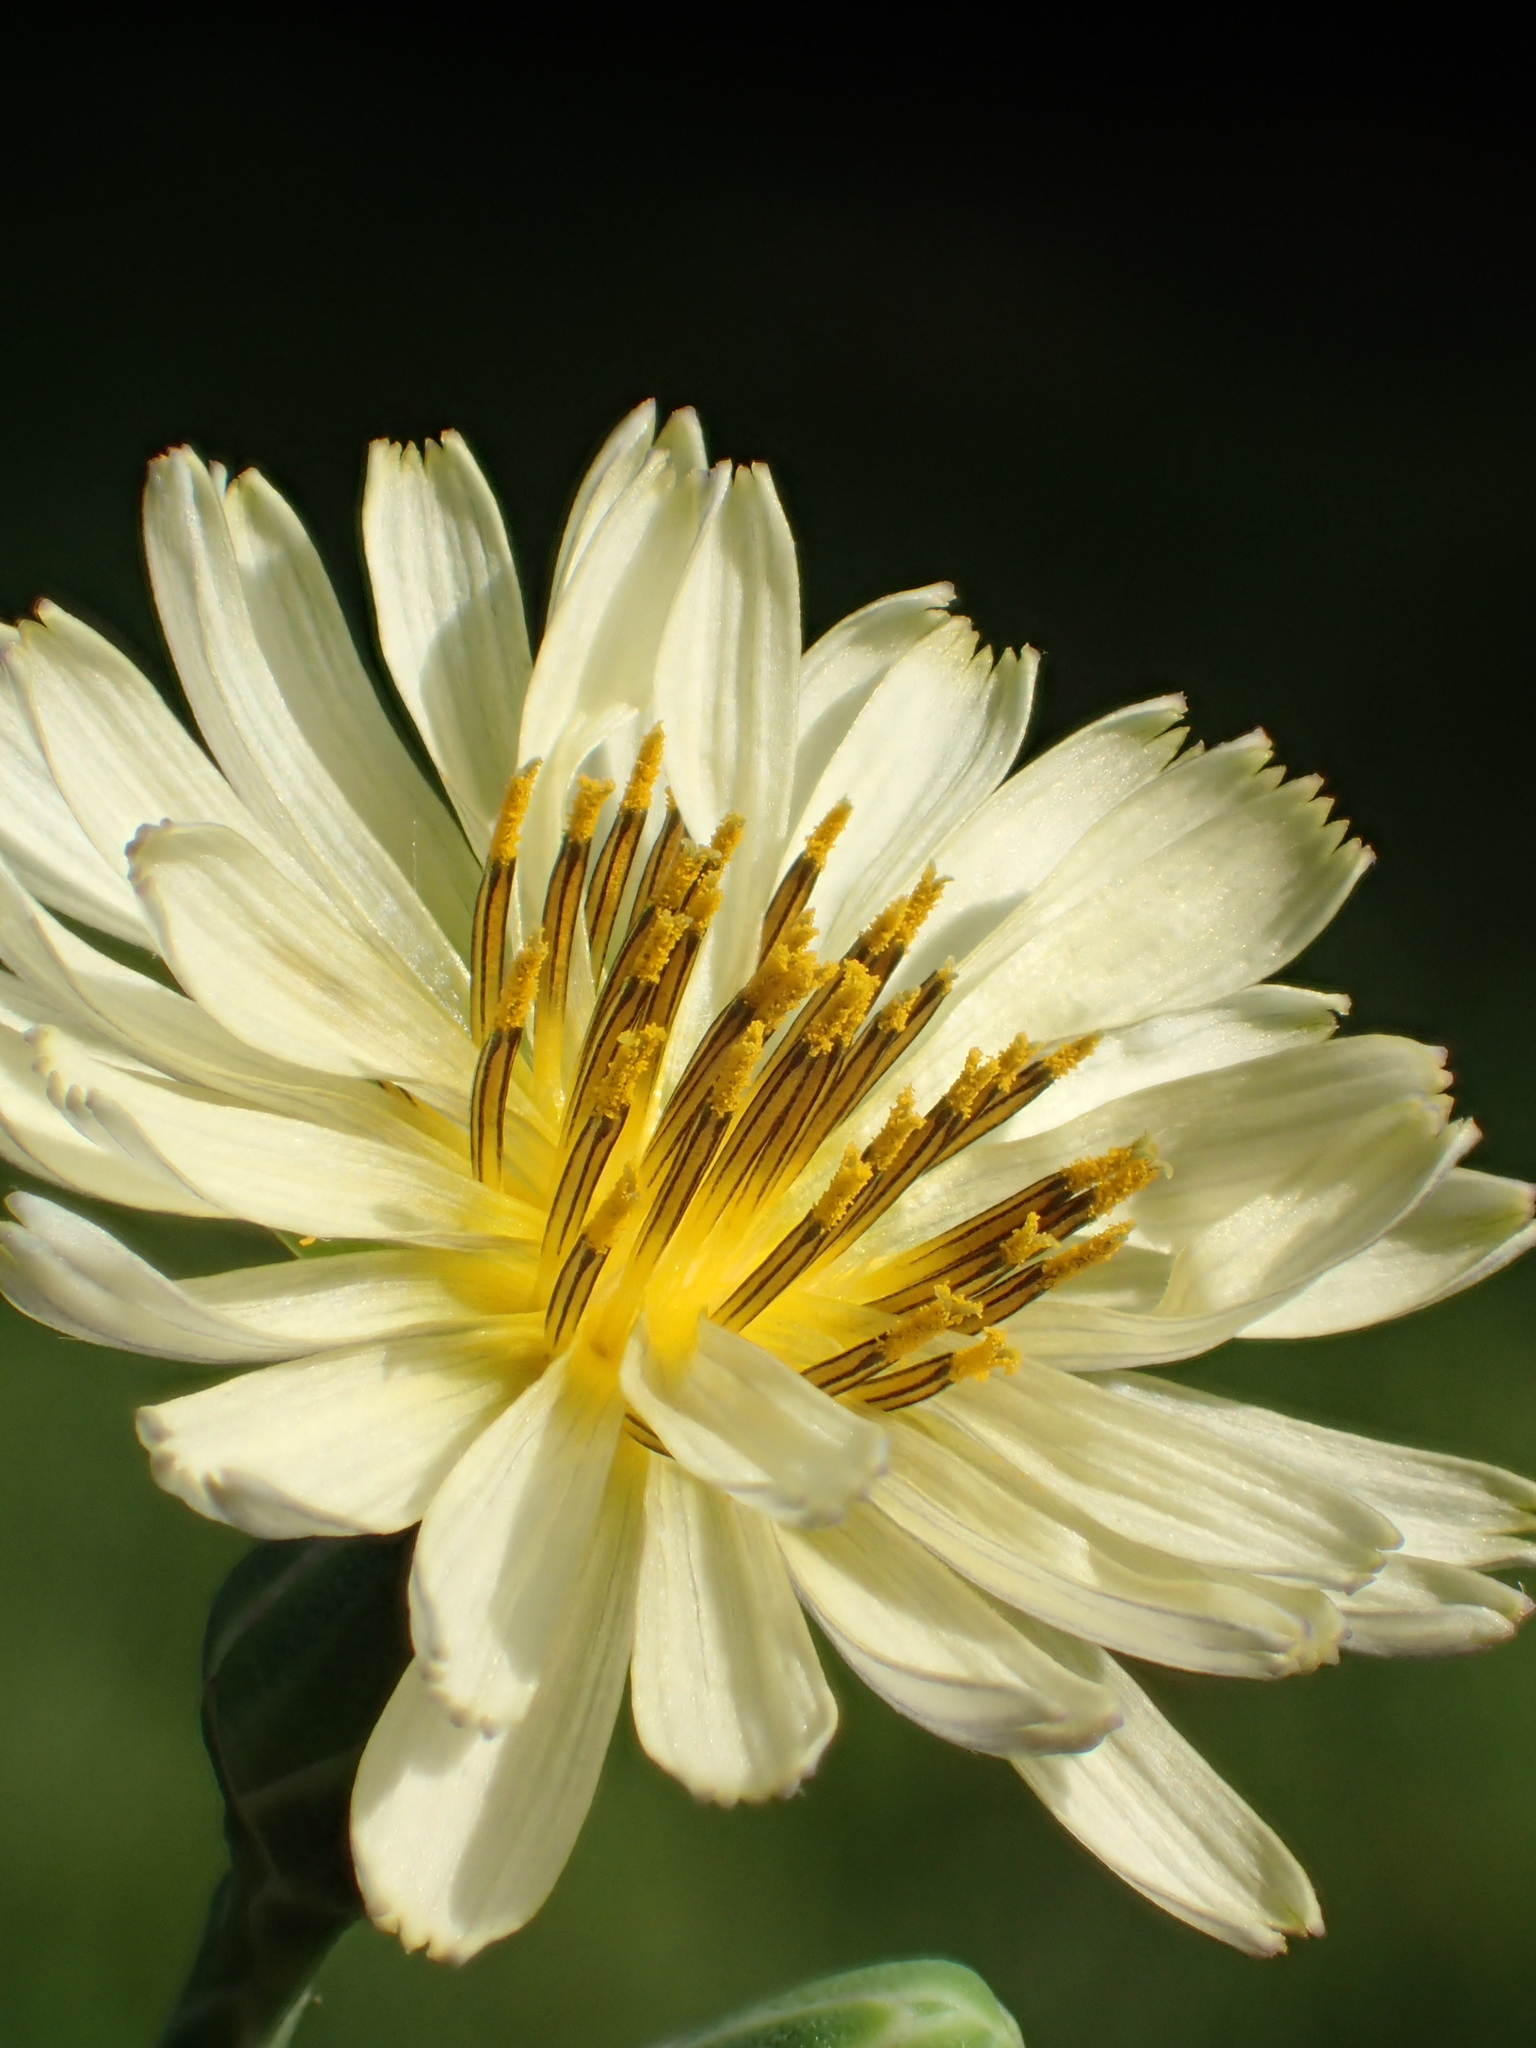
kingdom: Plantae
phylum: Tracheophyta
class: Magnoliopsida
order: Asterales
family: Asteraceae
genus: Lactuca
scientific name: Lactuca indica
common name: Wild lettuce
